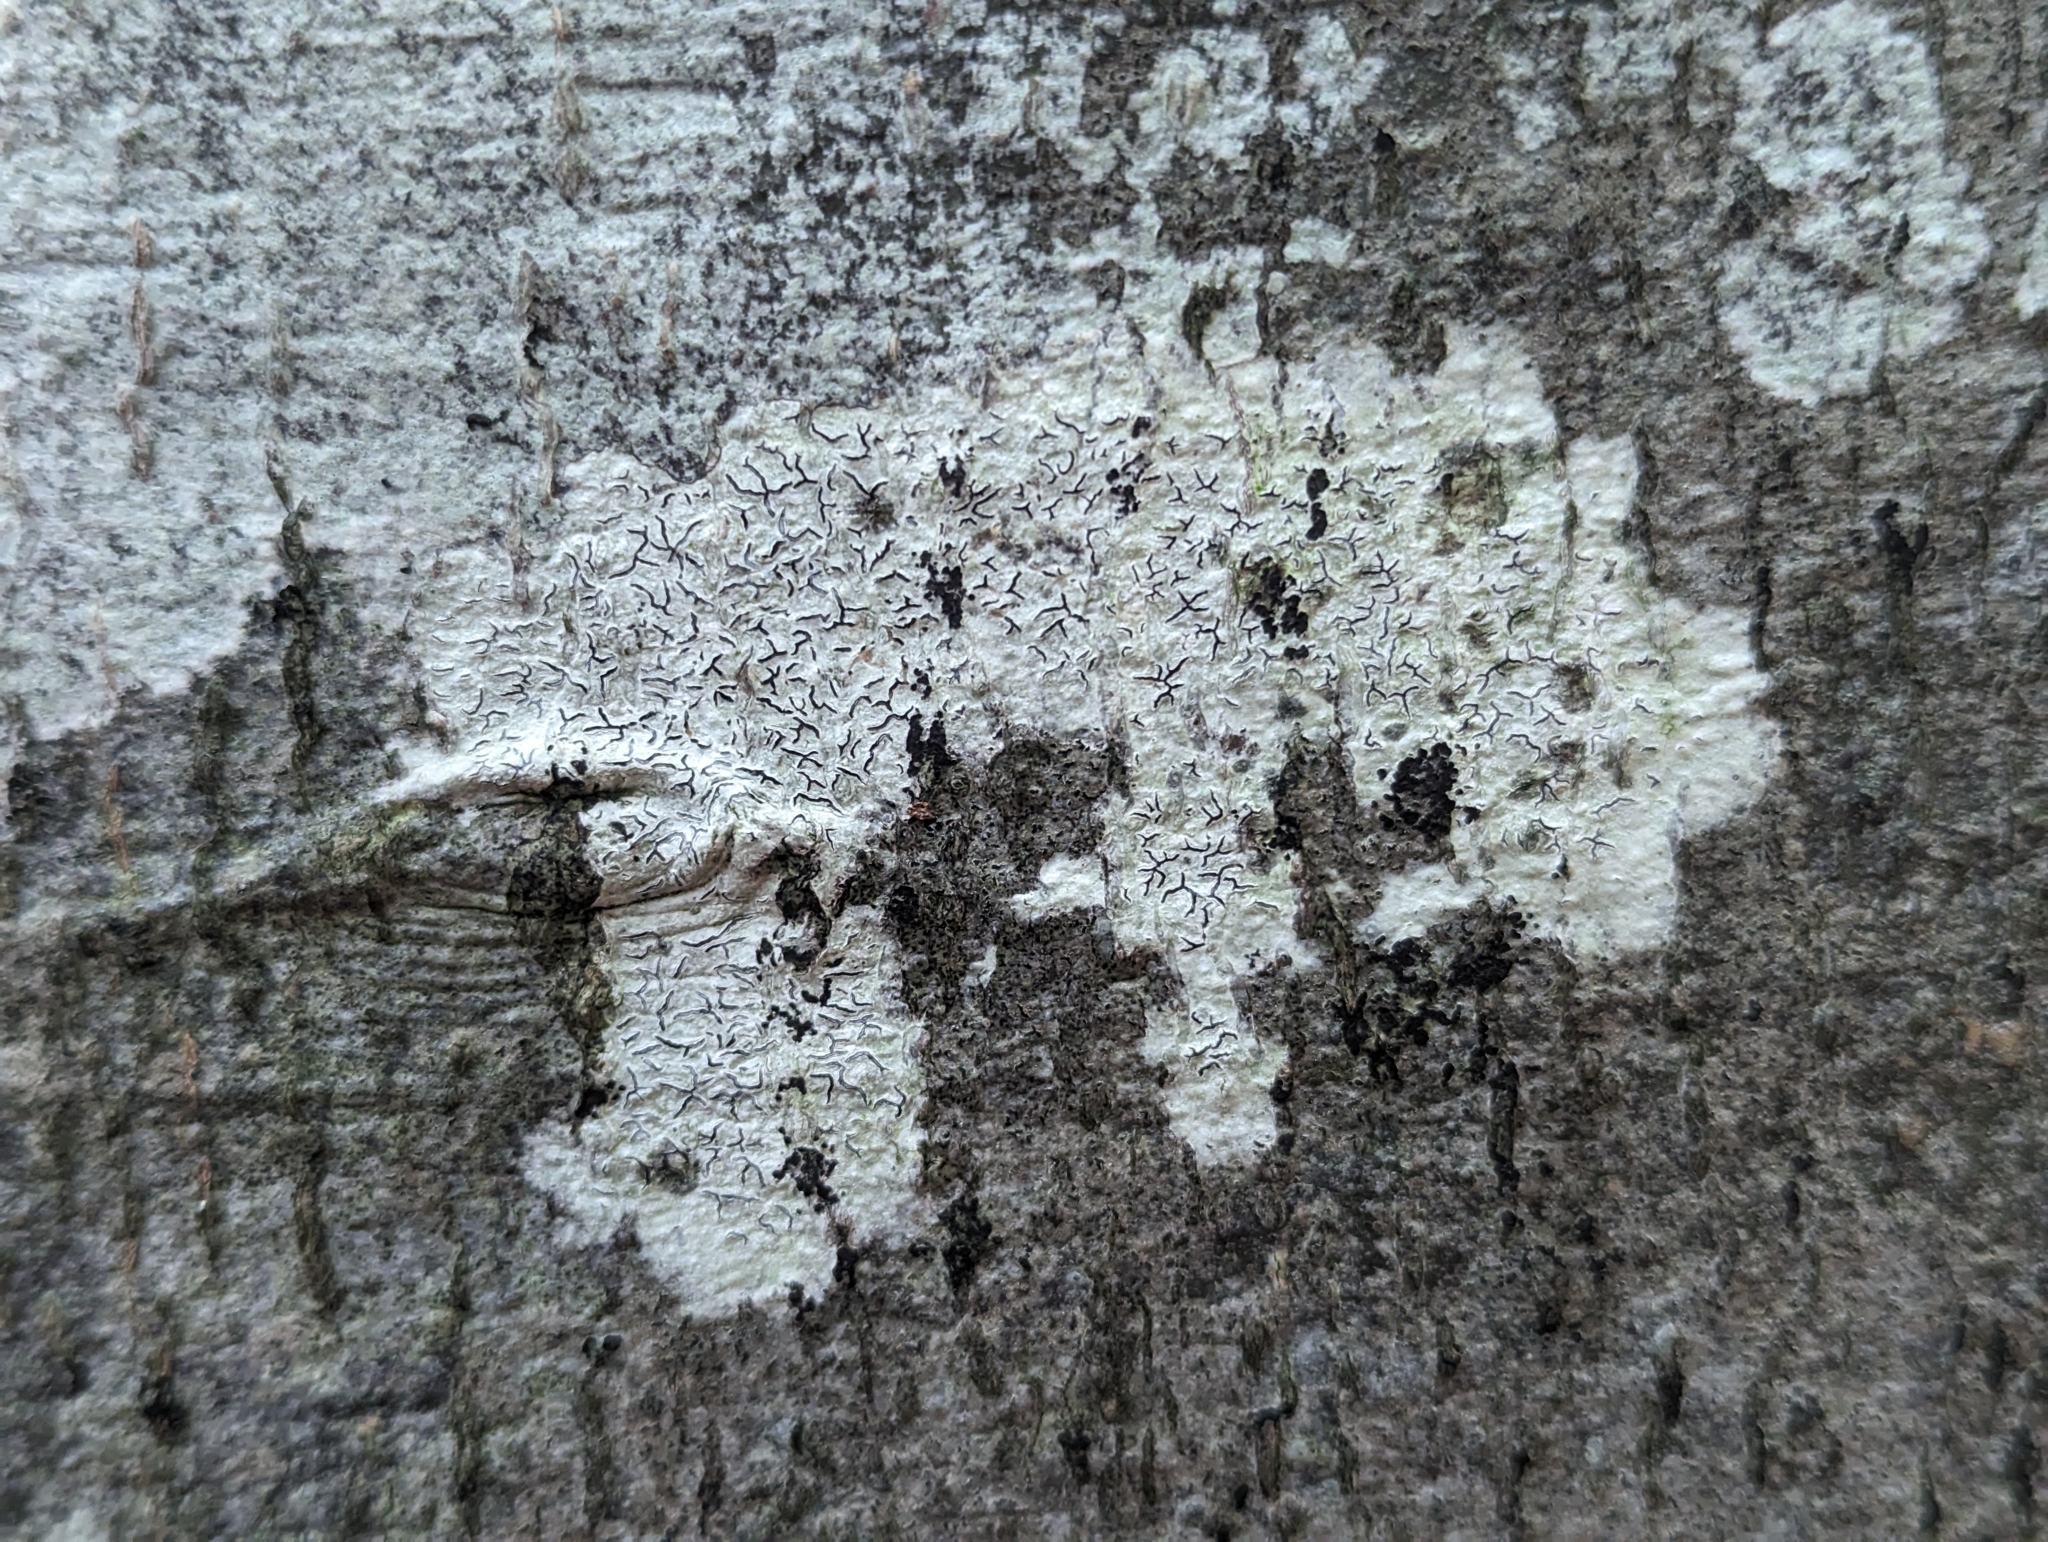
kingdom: Fungi
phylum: Ascomycota
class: Lecanoromycetes
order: Ostropales
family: Graphidaceae
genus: Graphis
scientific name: Graphis scripta
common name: Script lichen
